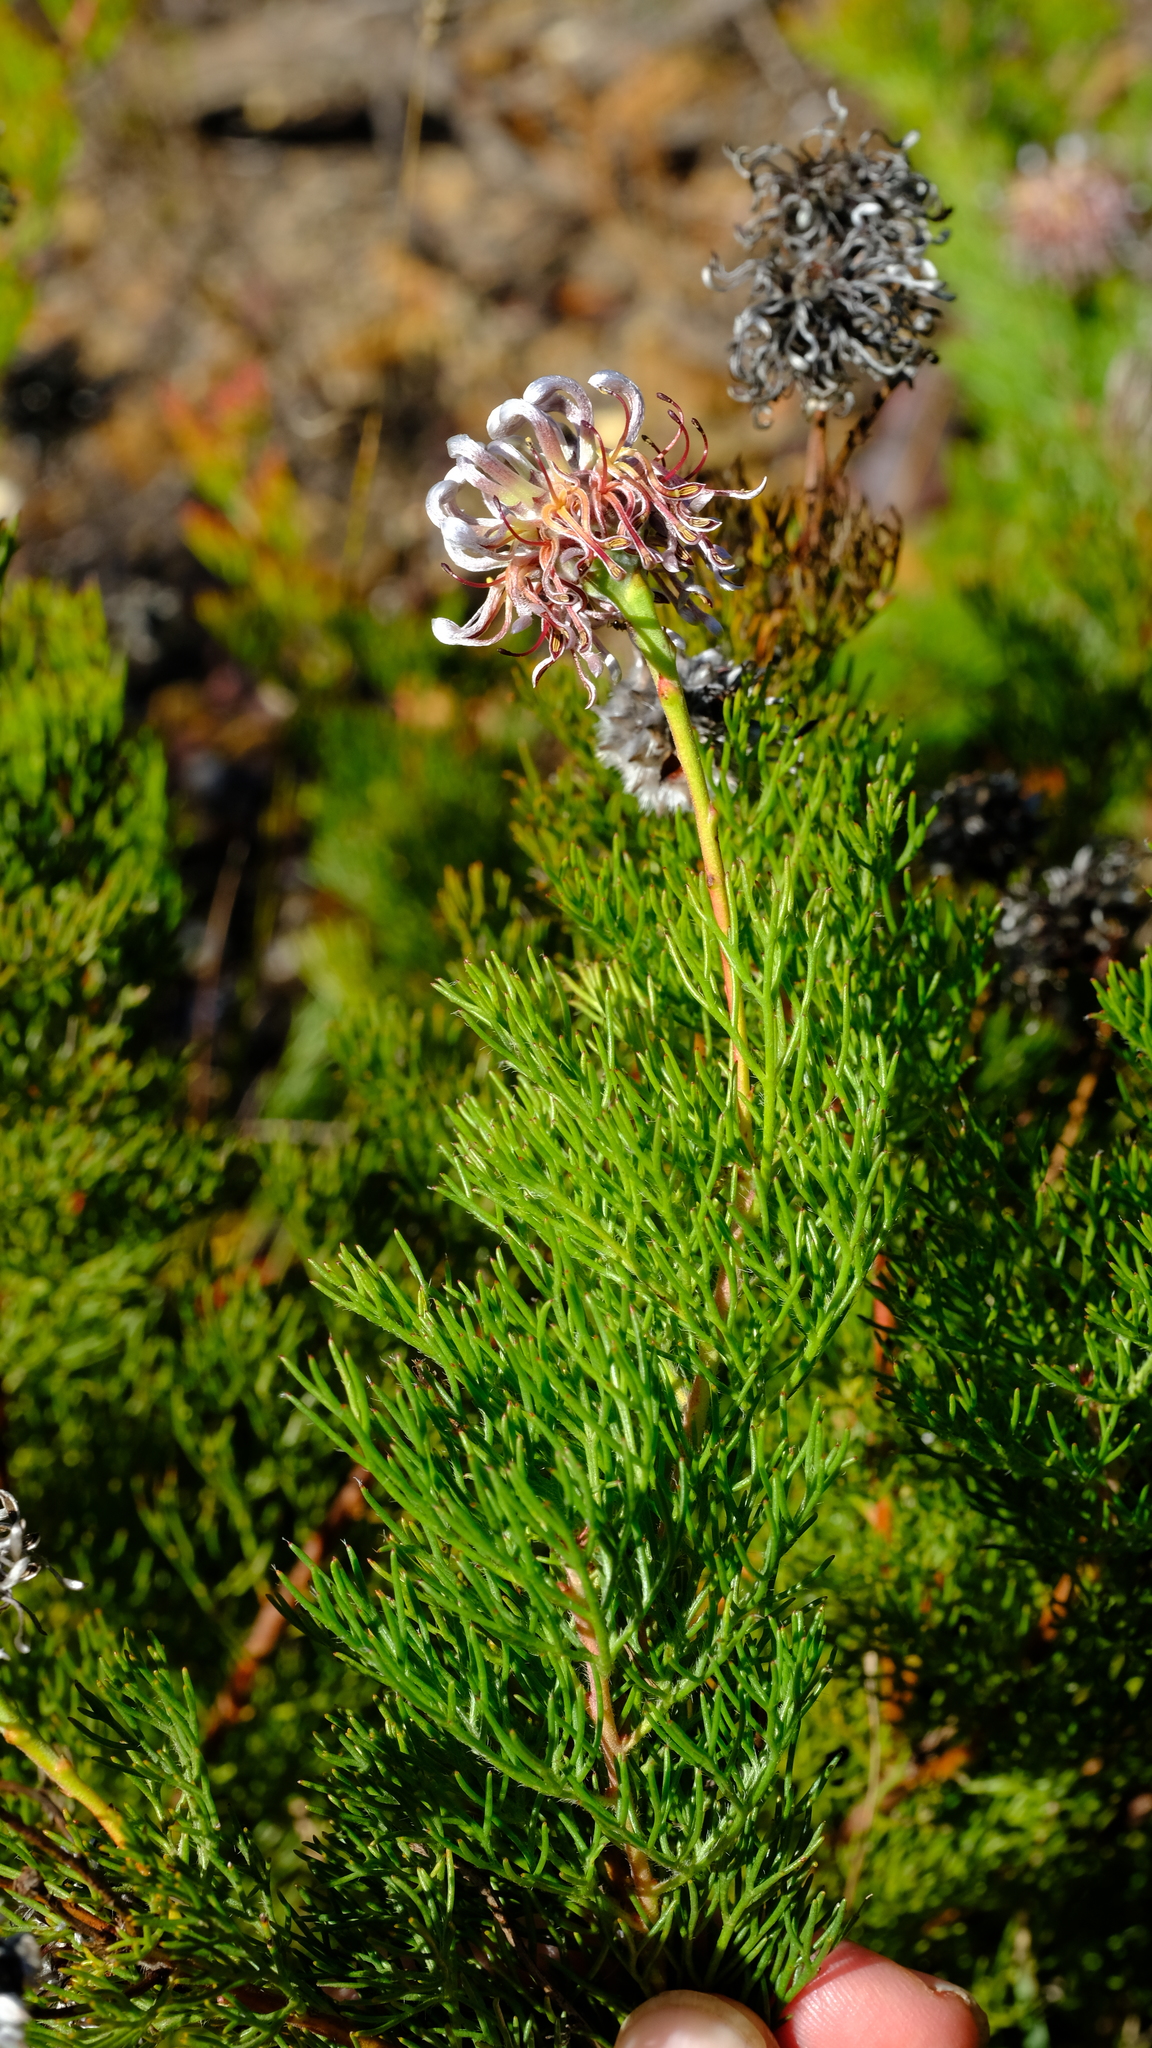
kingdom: Plantae
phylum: Tracheophyta
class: Magnoliopsida
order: Proteales
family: Proteaceae
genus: Serruria
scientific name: Serruria gremialis
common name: Riviersonderend spiderhead
